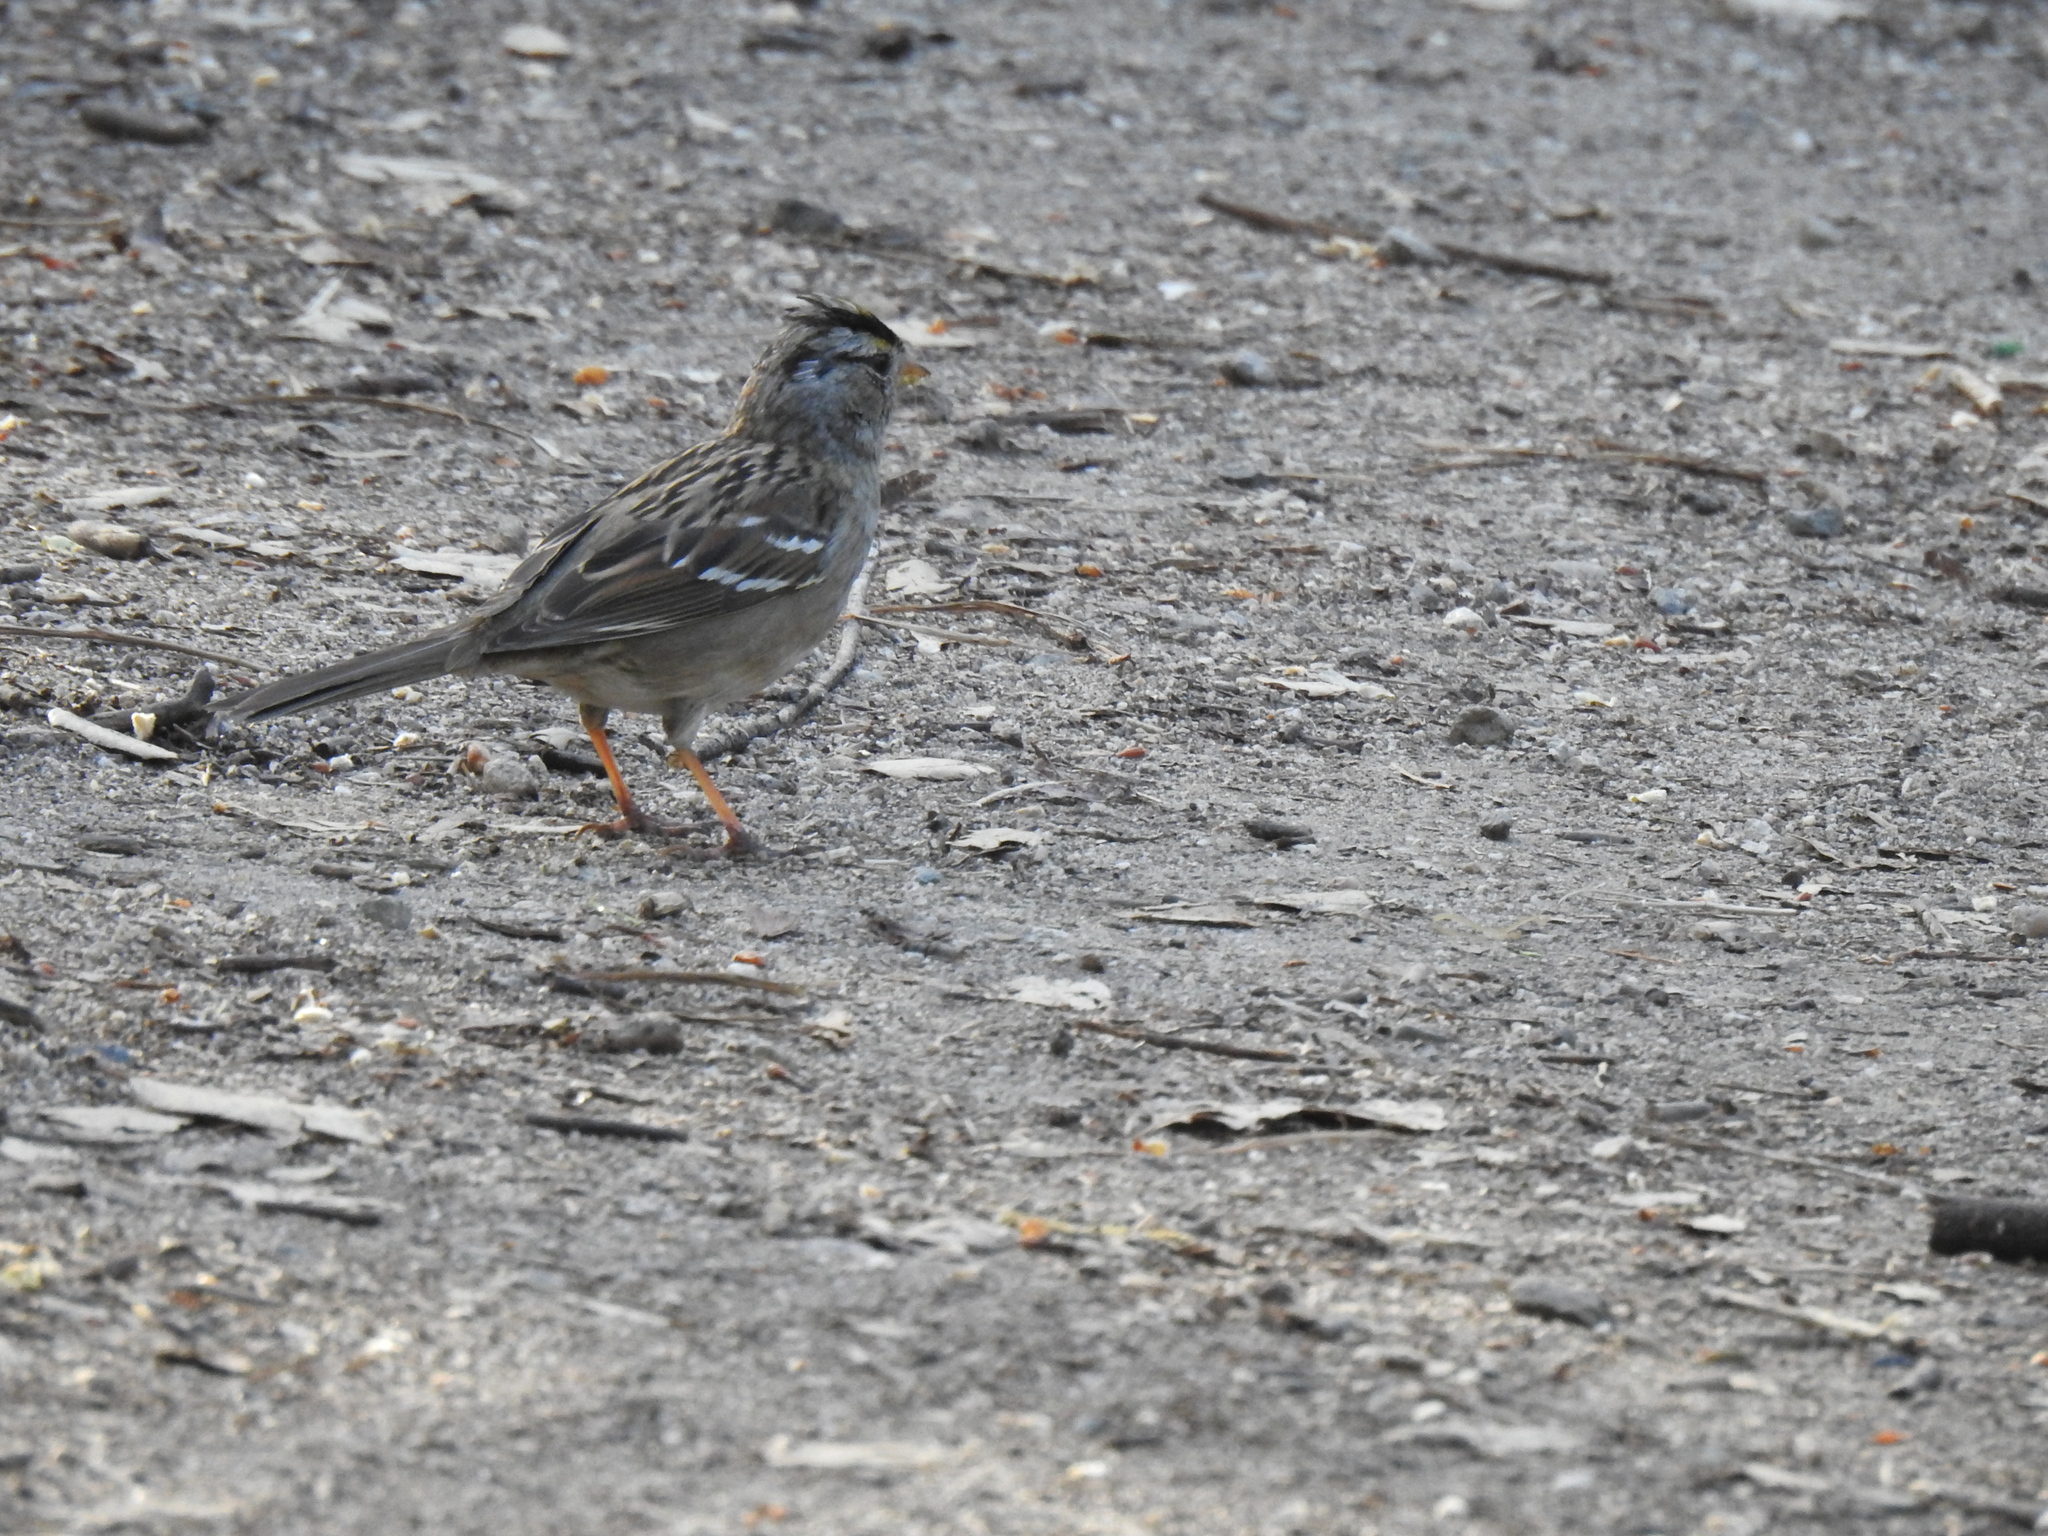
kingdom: Animalia
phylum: Chordata
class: Aves
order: Passeriformes
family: Passerellidae
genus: Zonotrichia
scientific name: Zonotrichia leucophrys
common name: White-crowned sparrow
